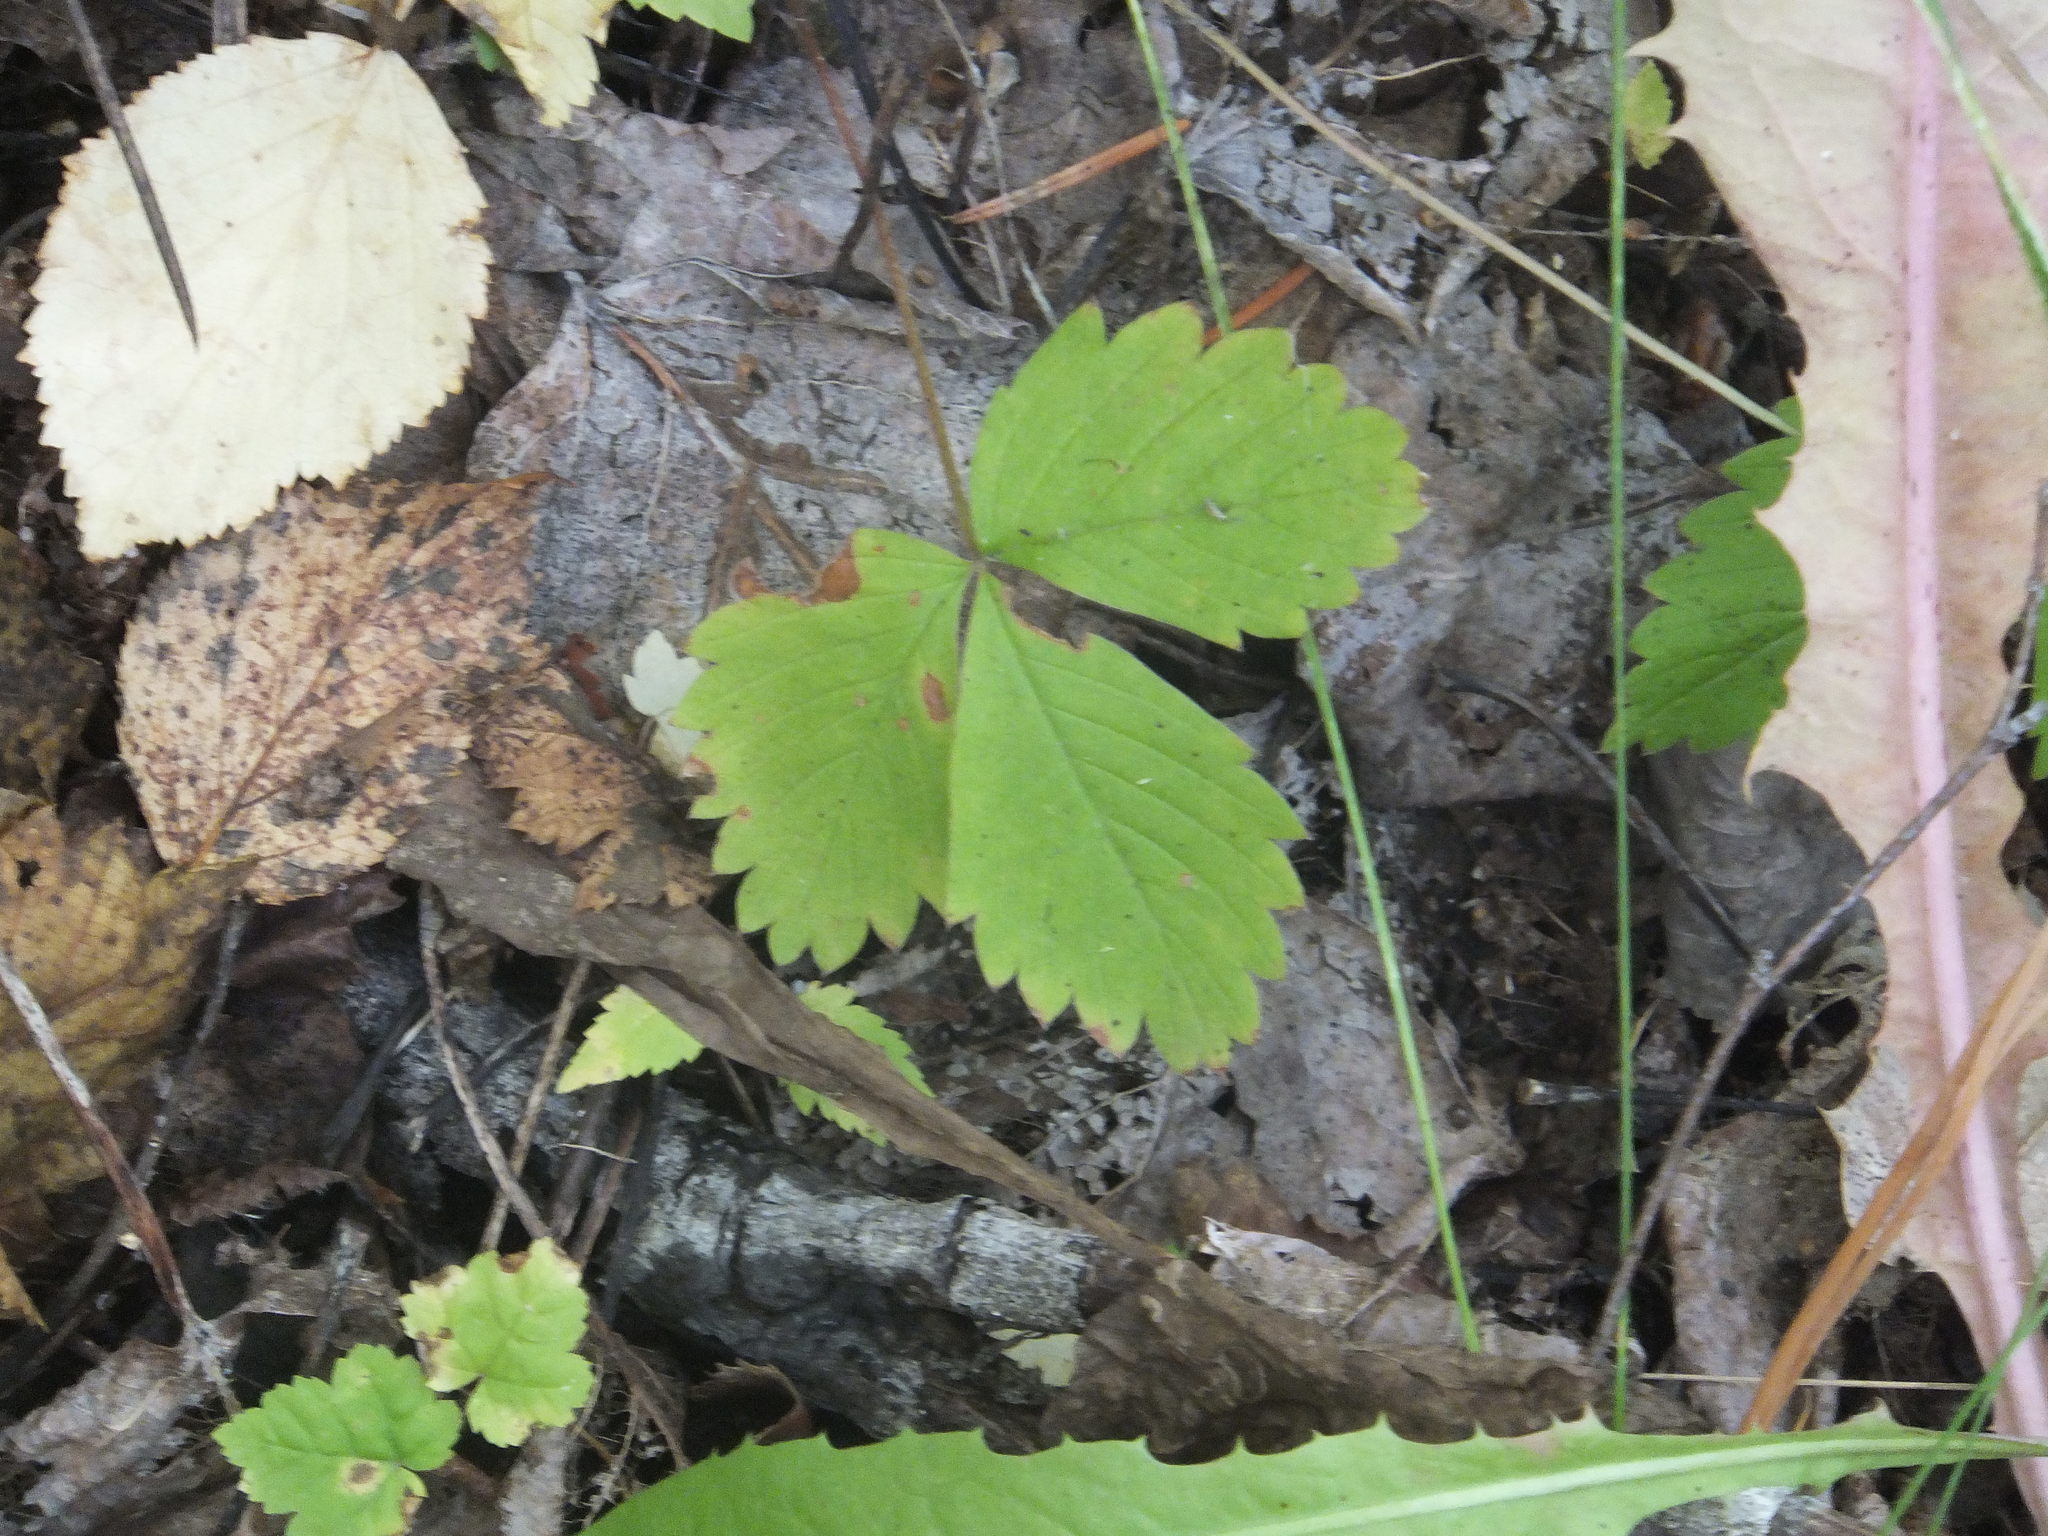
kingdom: Plantae
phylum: Tracheophyta
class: Magnoliopsida
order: Rosales
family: Rosaceae
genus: Fragaria
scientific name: Fragaria vesca
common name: Wild strawberry
